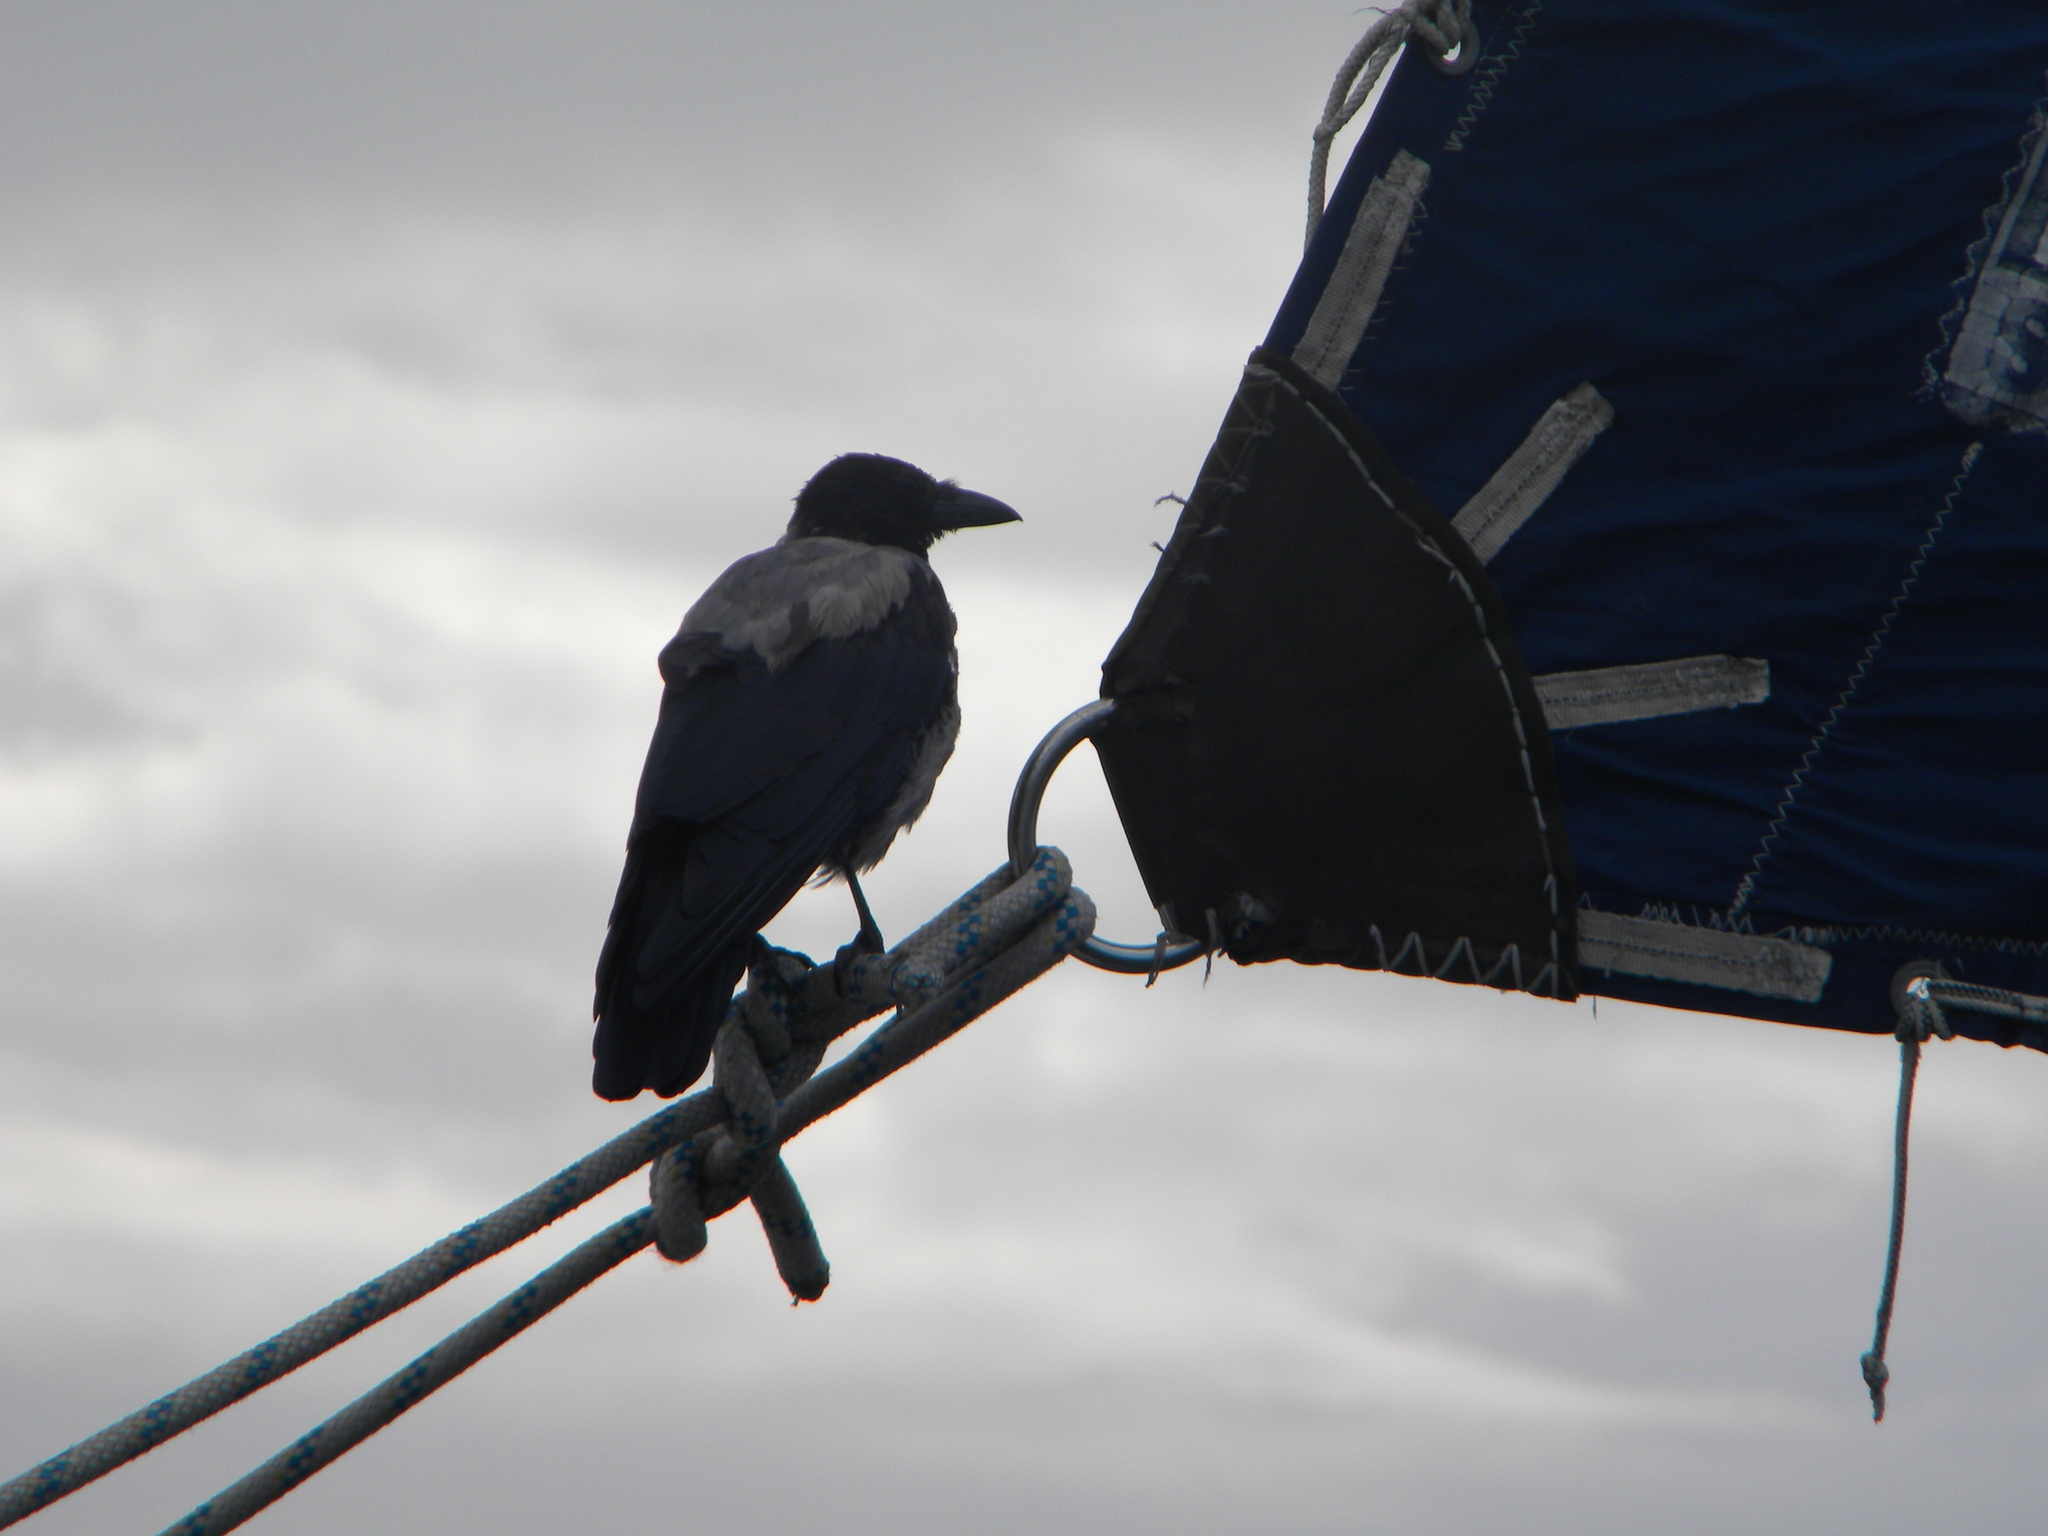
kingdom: Animalia
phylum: Chordata
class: Aves
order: Passeriformes
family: Corvidae
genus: Corvus
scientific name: Corvus cornix
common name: Hooded crow
